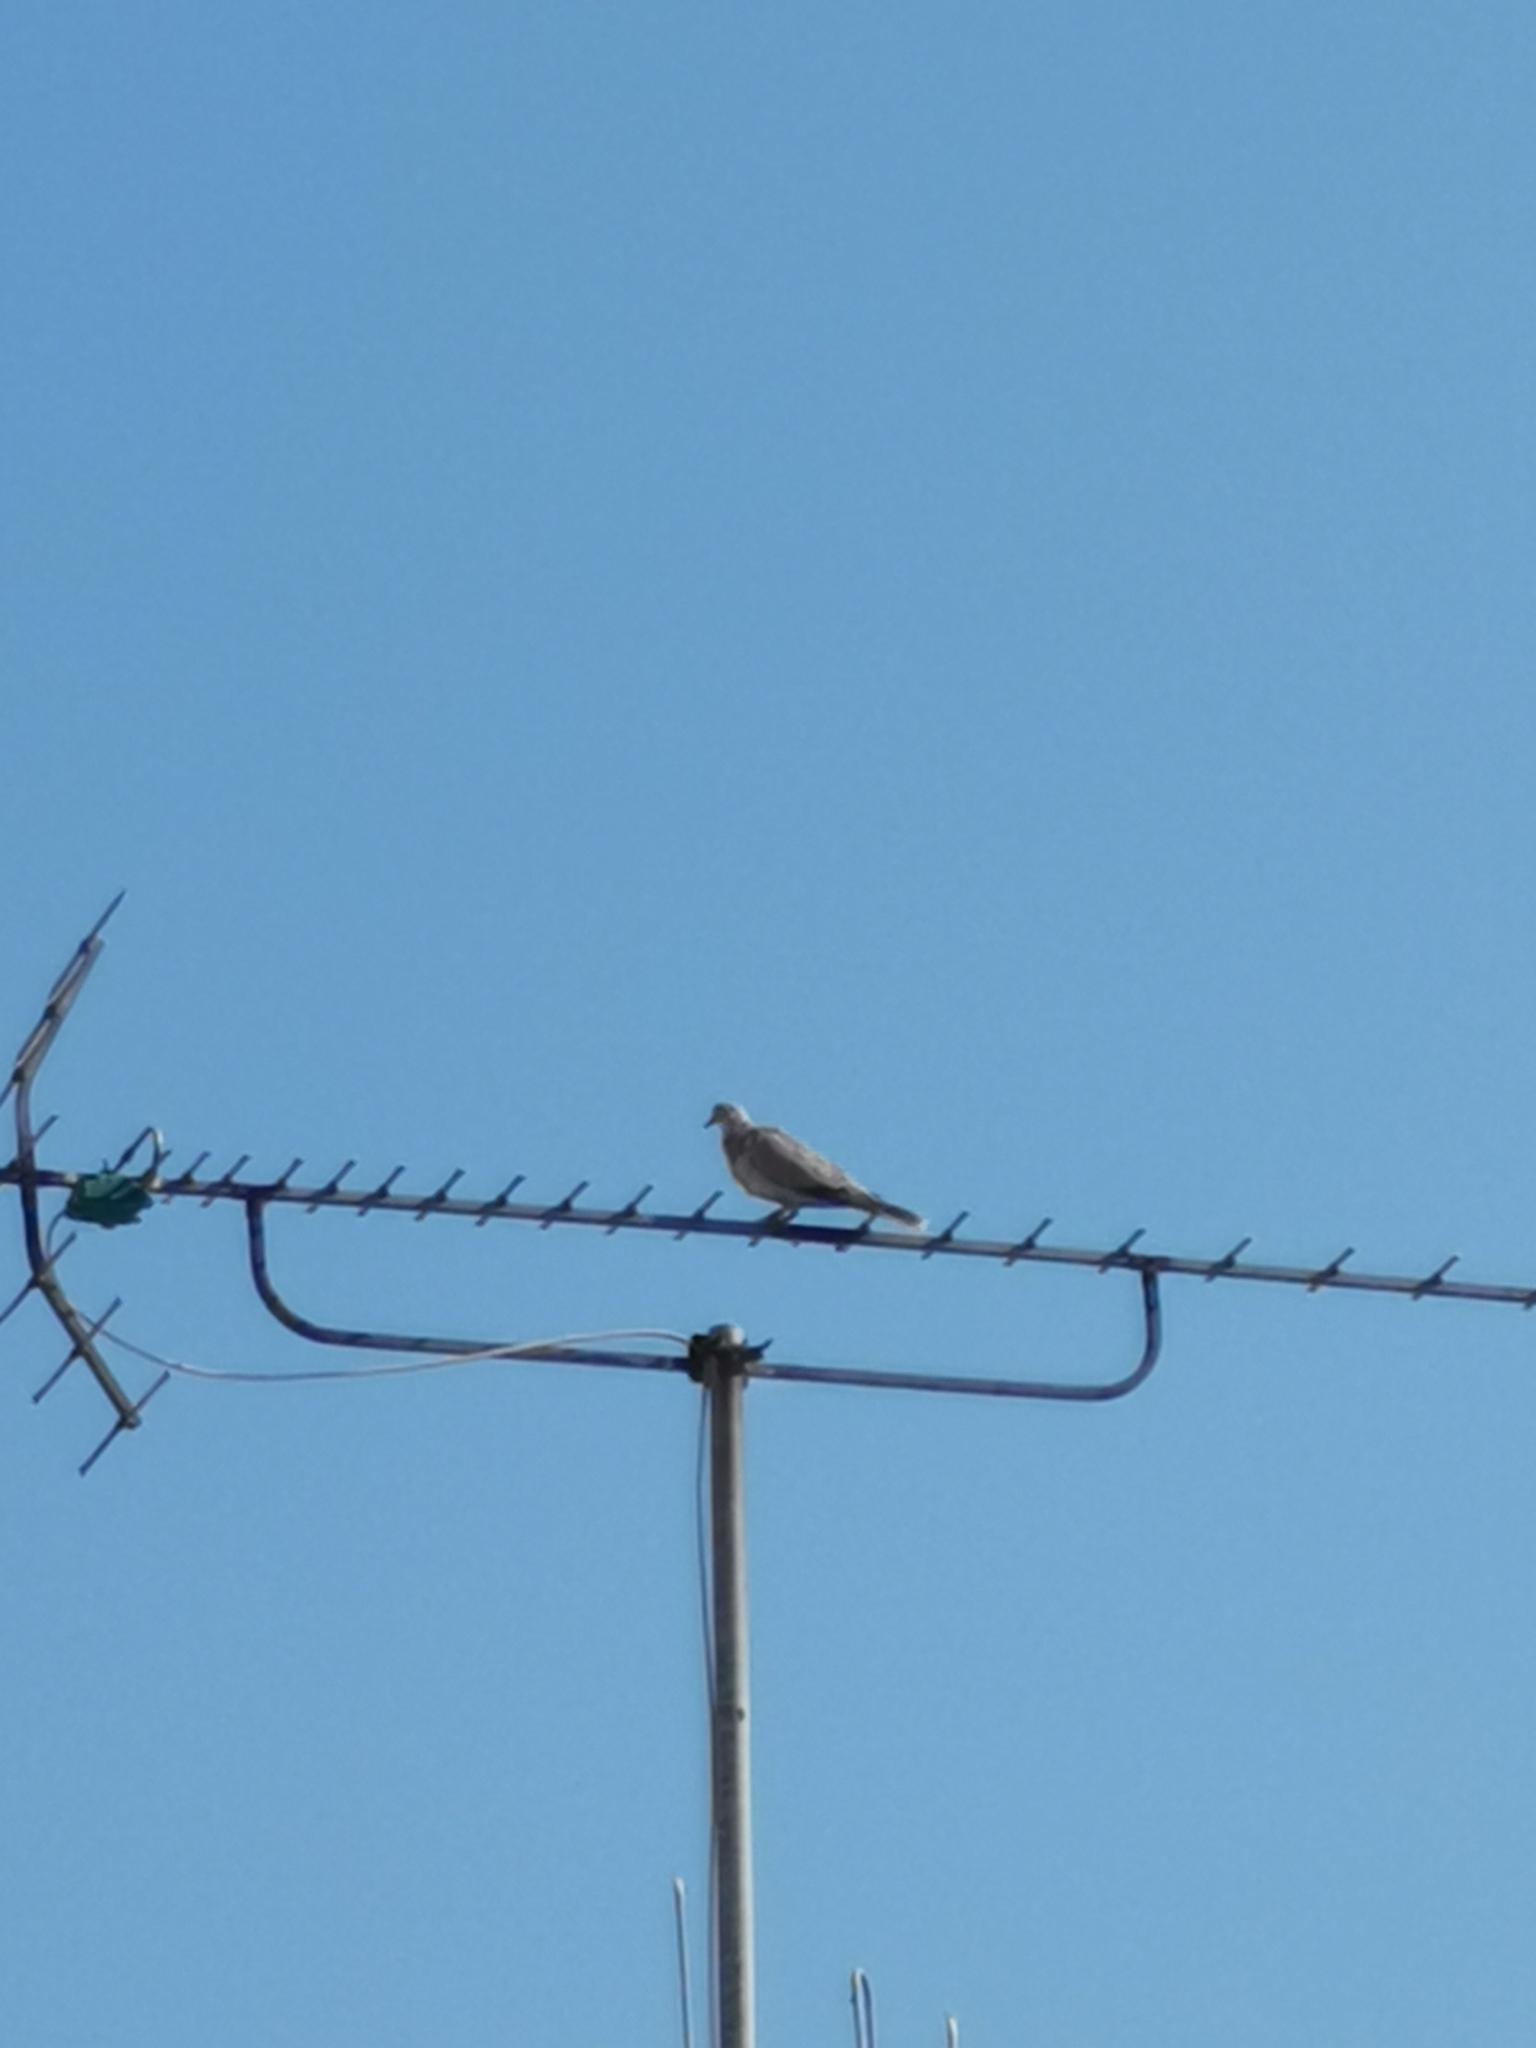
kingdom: Animalia
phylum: Chordata
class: Aves
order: Columbiformes
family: Columbidae
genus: Streptopelia
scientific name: Streptopelia decaocto
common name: Eurasian collared dove
